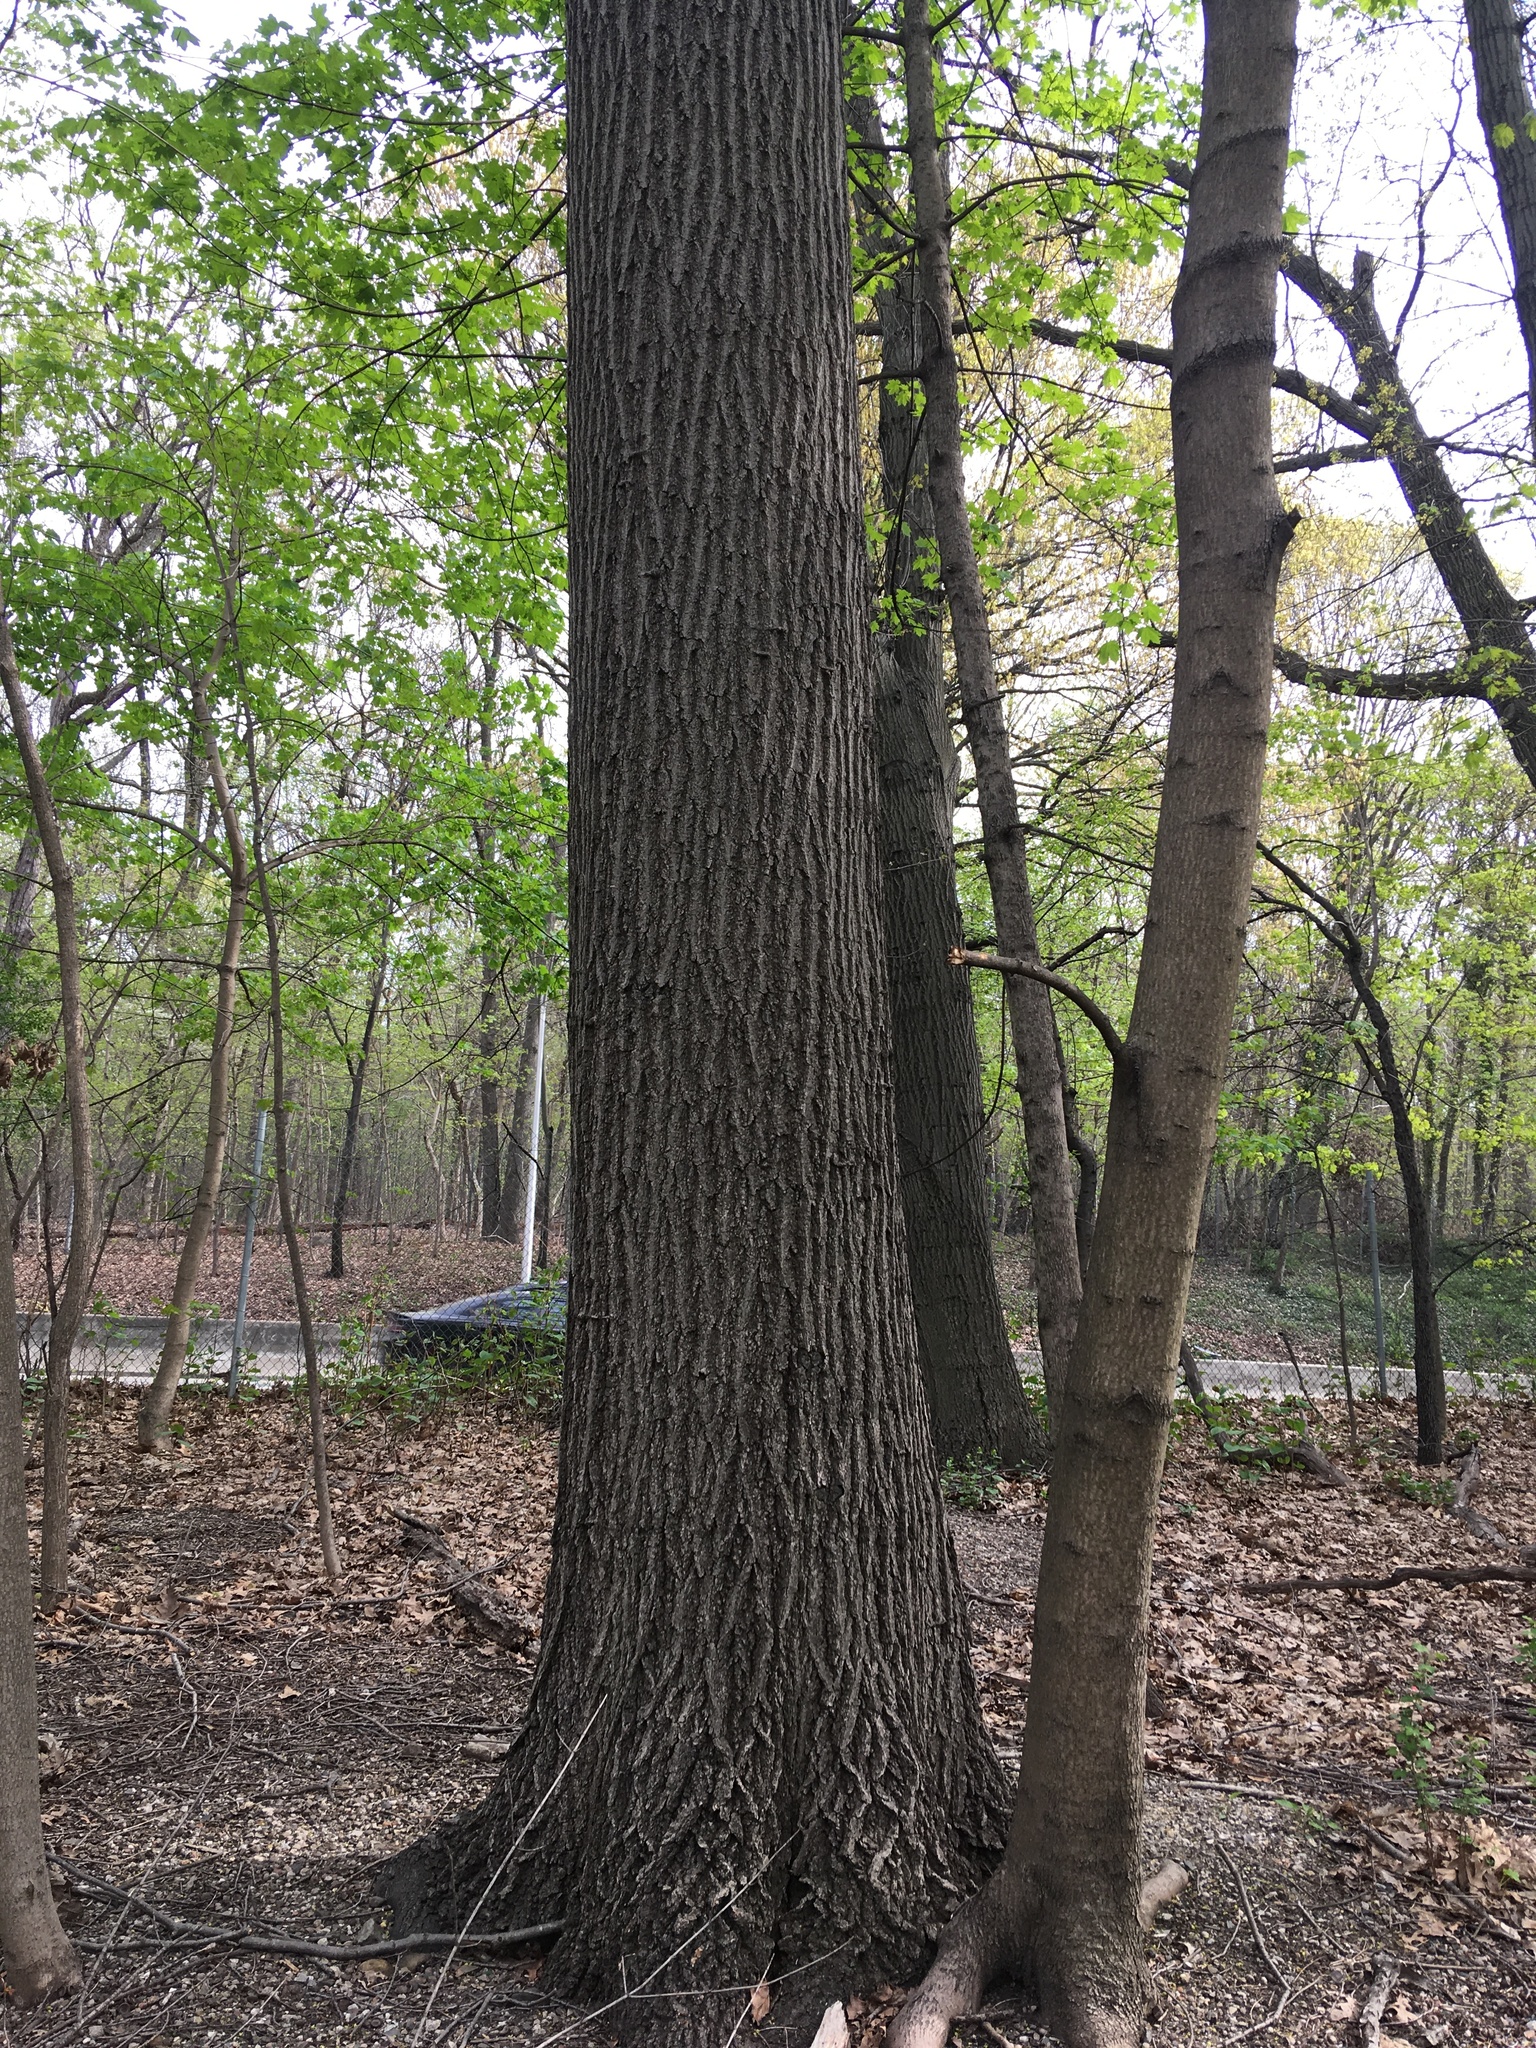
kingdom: Plantae
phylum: Tracheophyta
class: Magnoliopsida
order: Fagales
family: Fagaceae
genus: Quercus
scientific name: Quercus rubra
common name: Red oak
